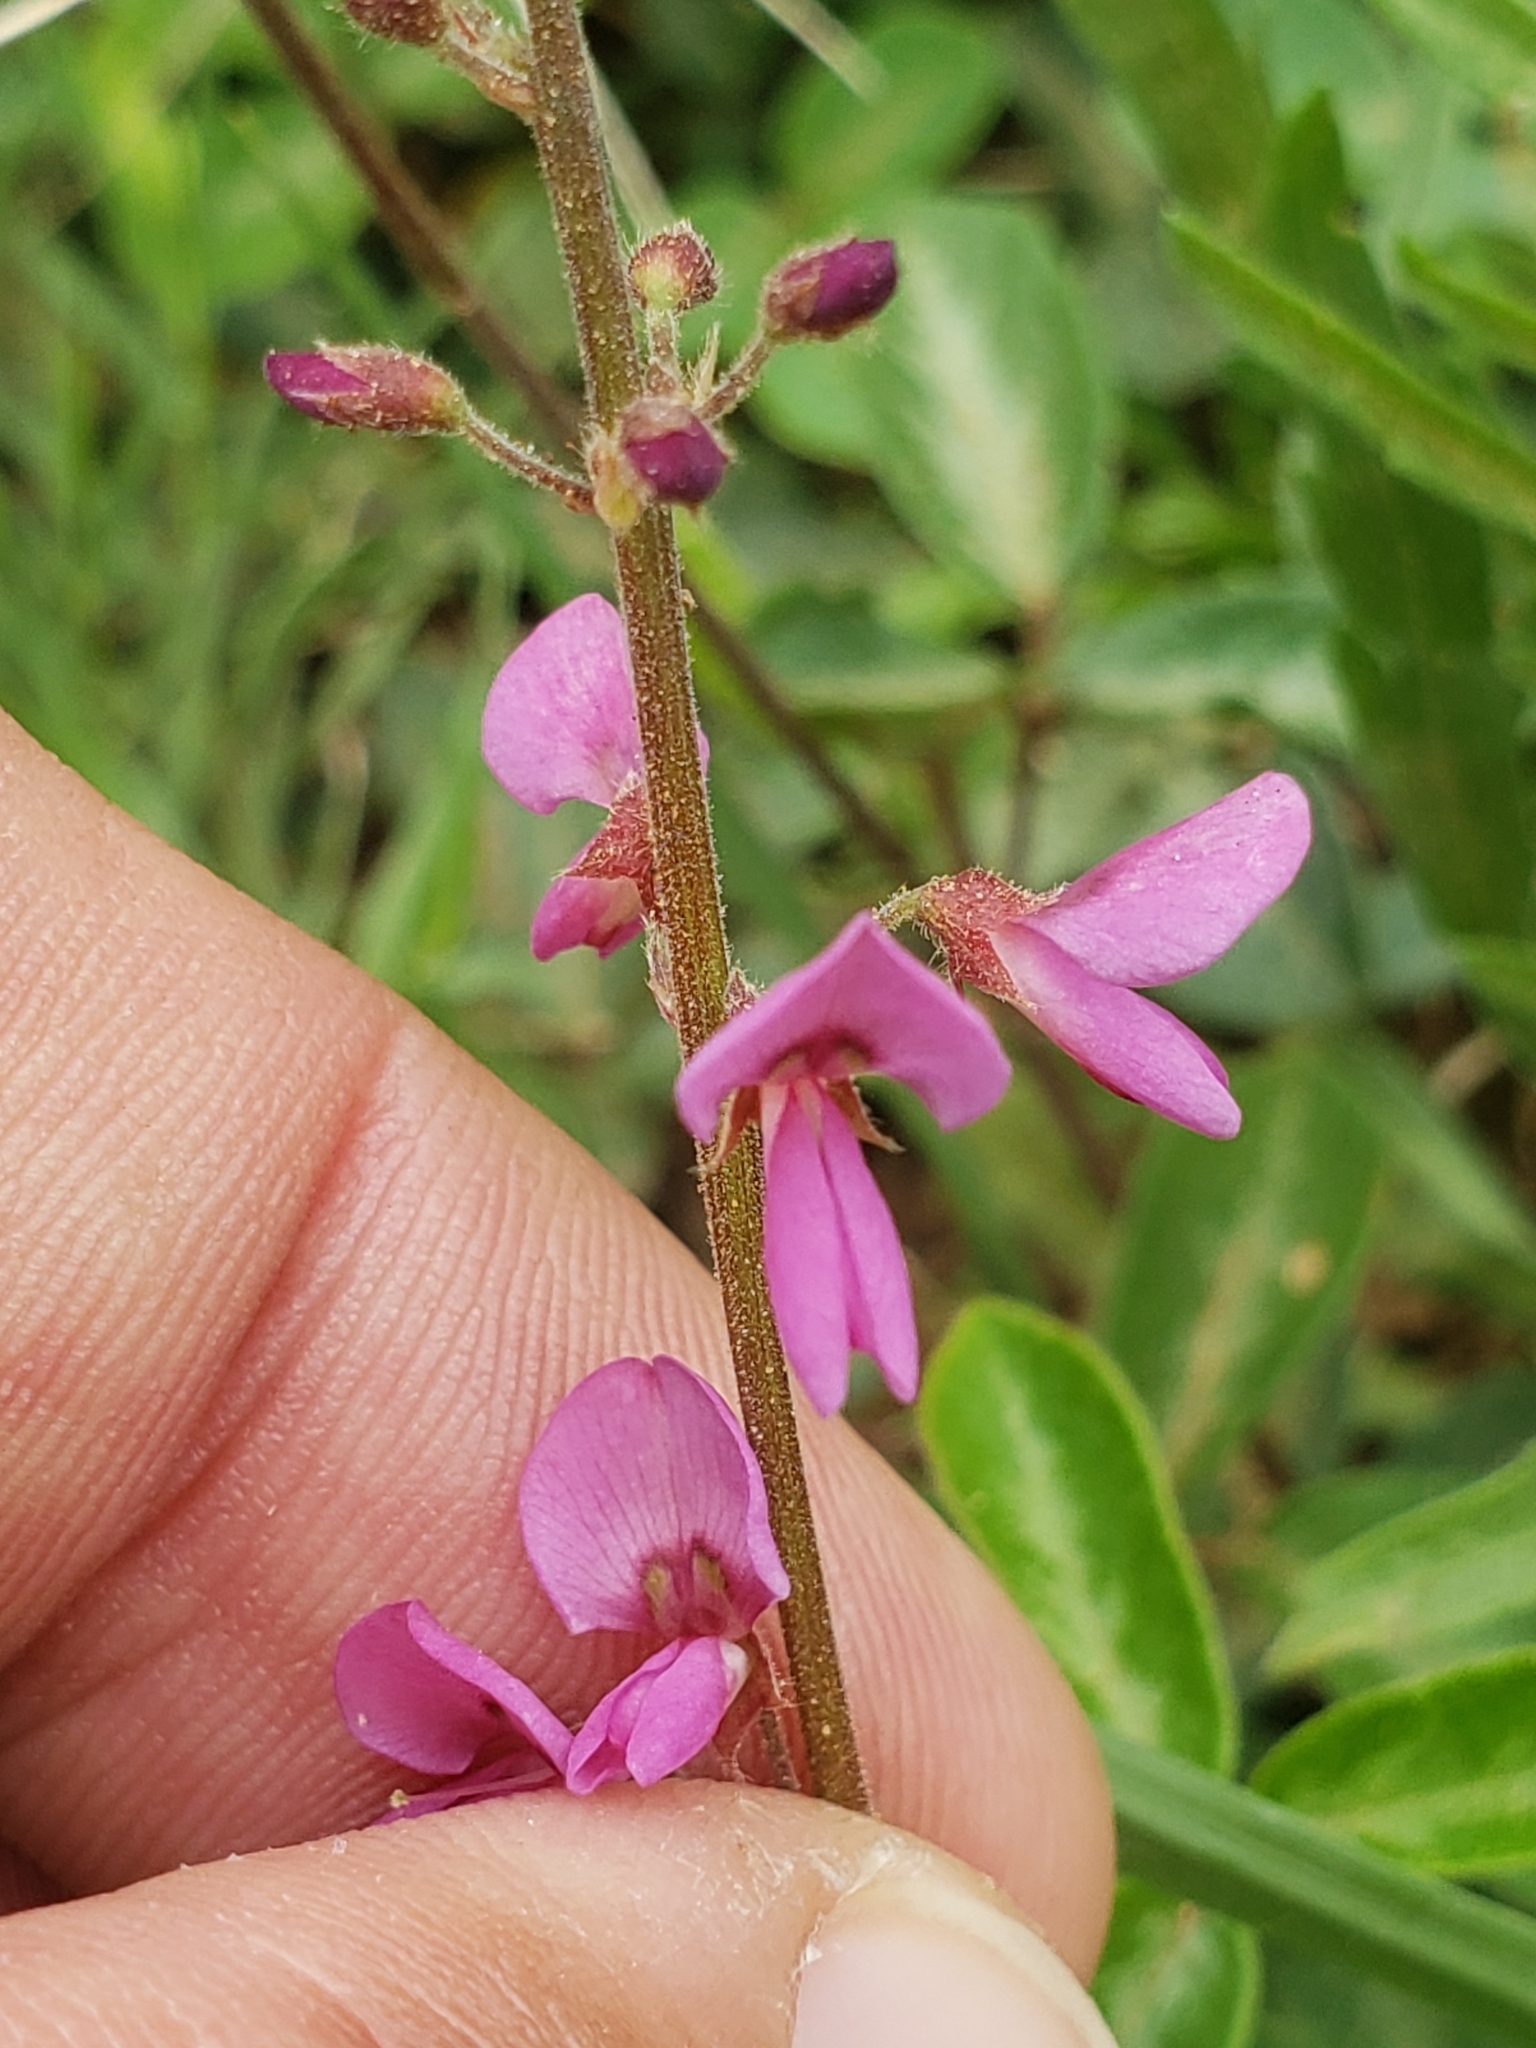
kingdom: Plantae
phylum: Tracheophyta
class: Magnoliopsida
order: Fabales
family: Fabaceae
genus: Desmodium
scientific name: Desmodium incanum
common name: Tickclover
